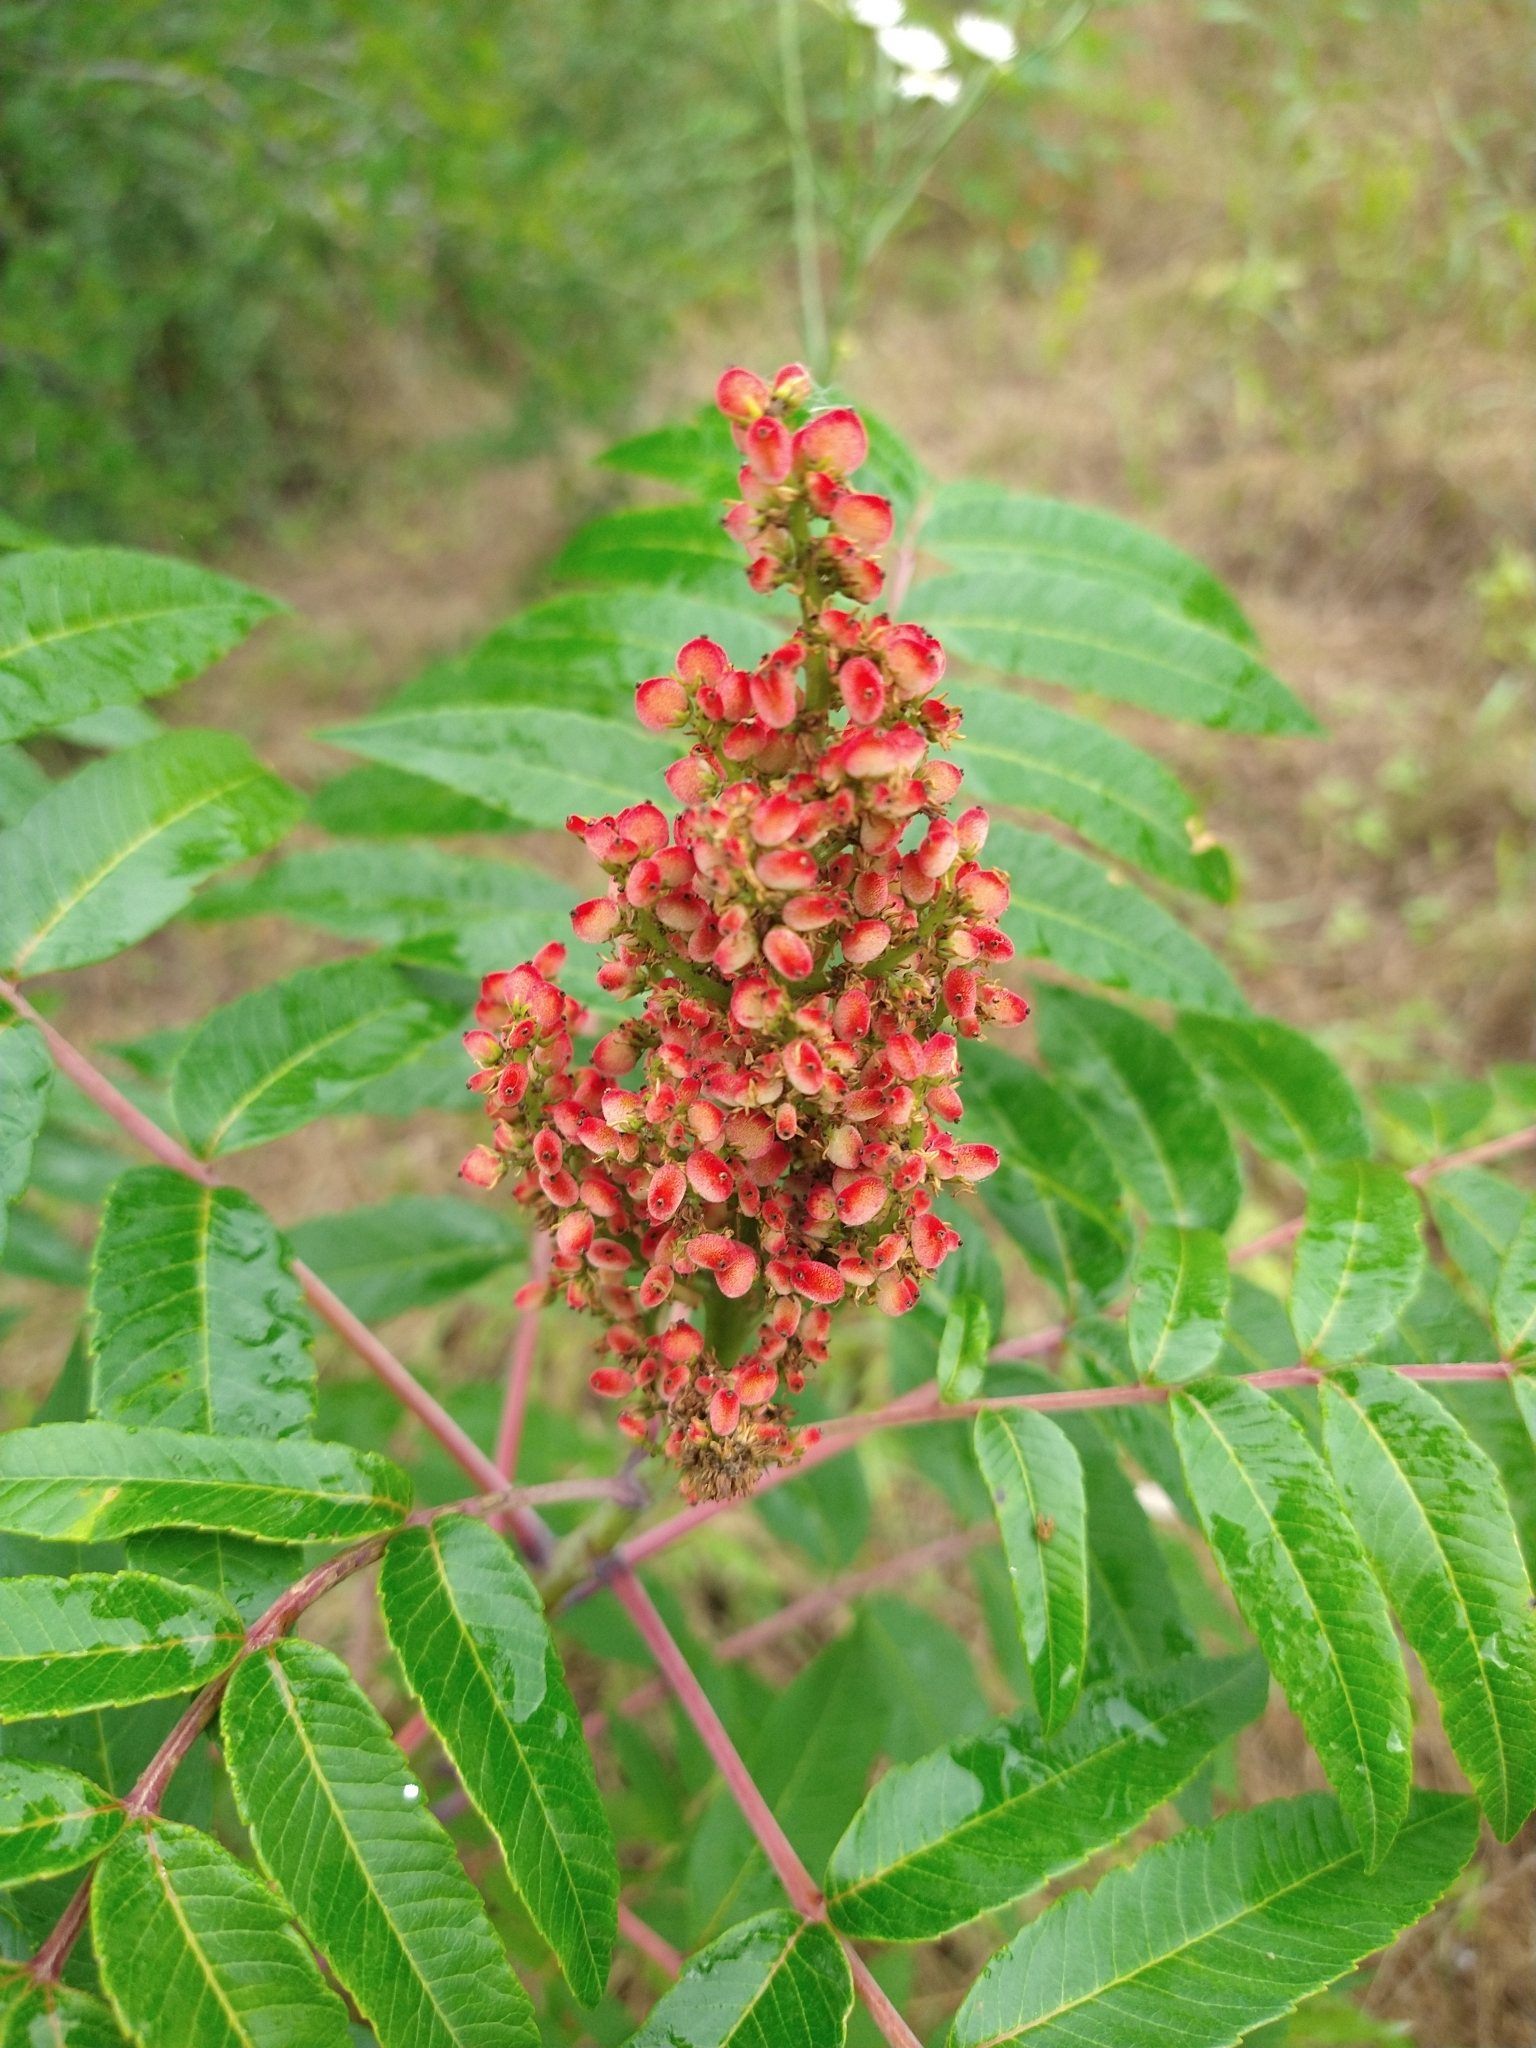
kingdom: Plantae
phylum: Tracheophyta
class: Magnoliopsida
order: Sapindales
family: Anacardiaceae
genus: Rhus
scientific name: Rhus glabra
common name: Scarlet sumac
